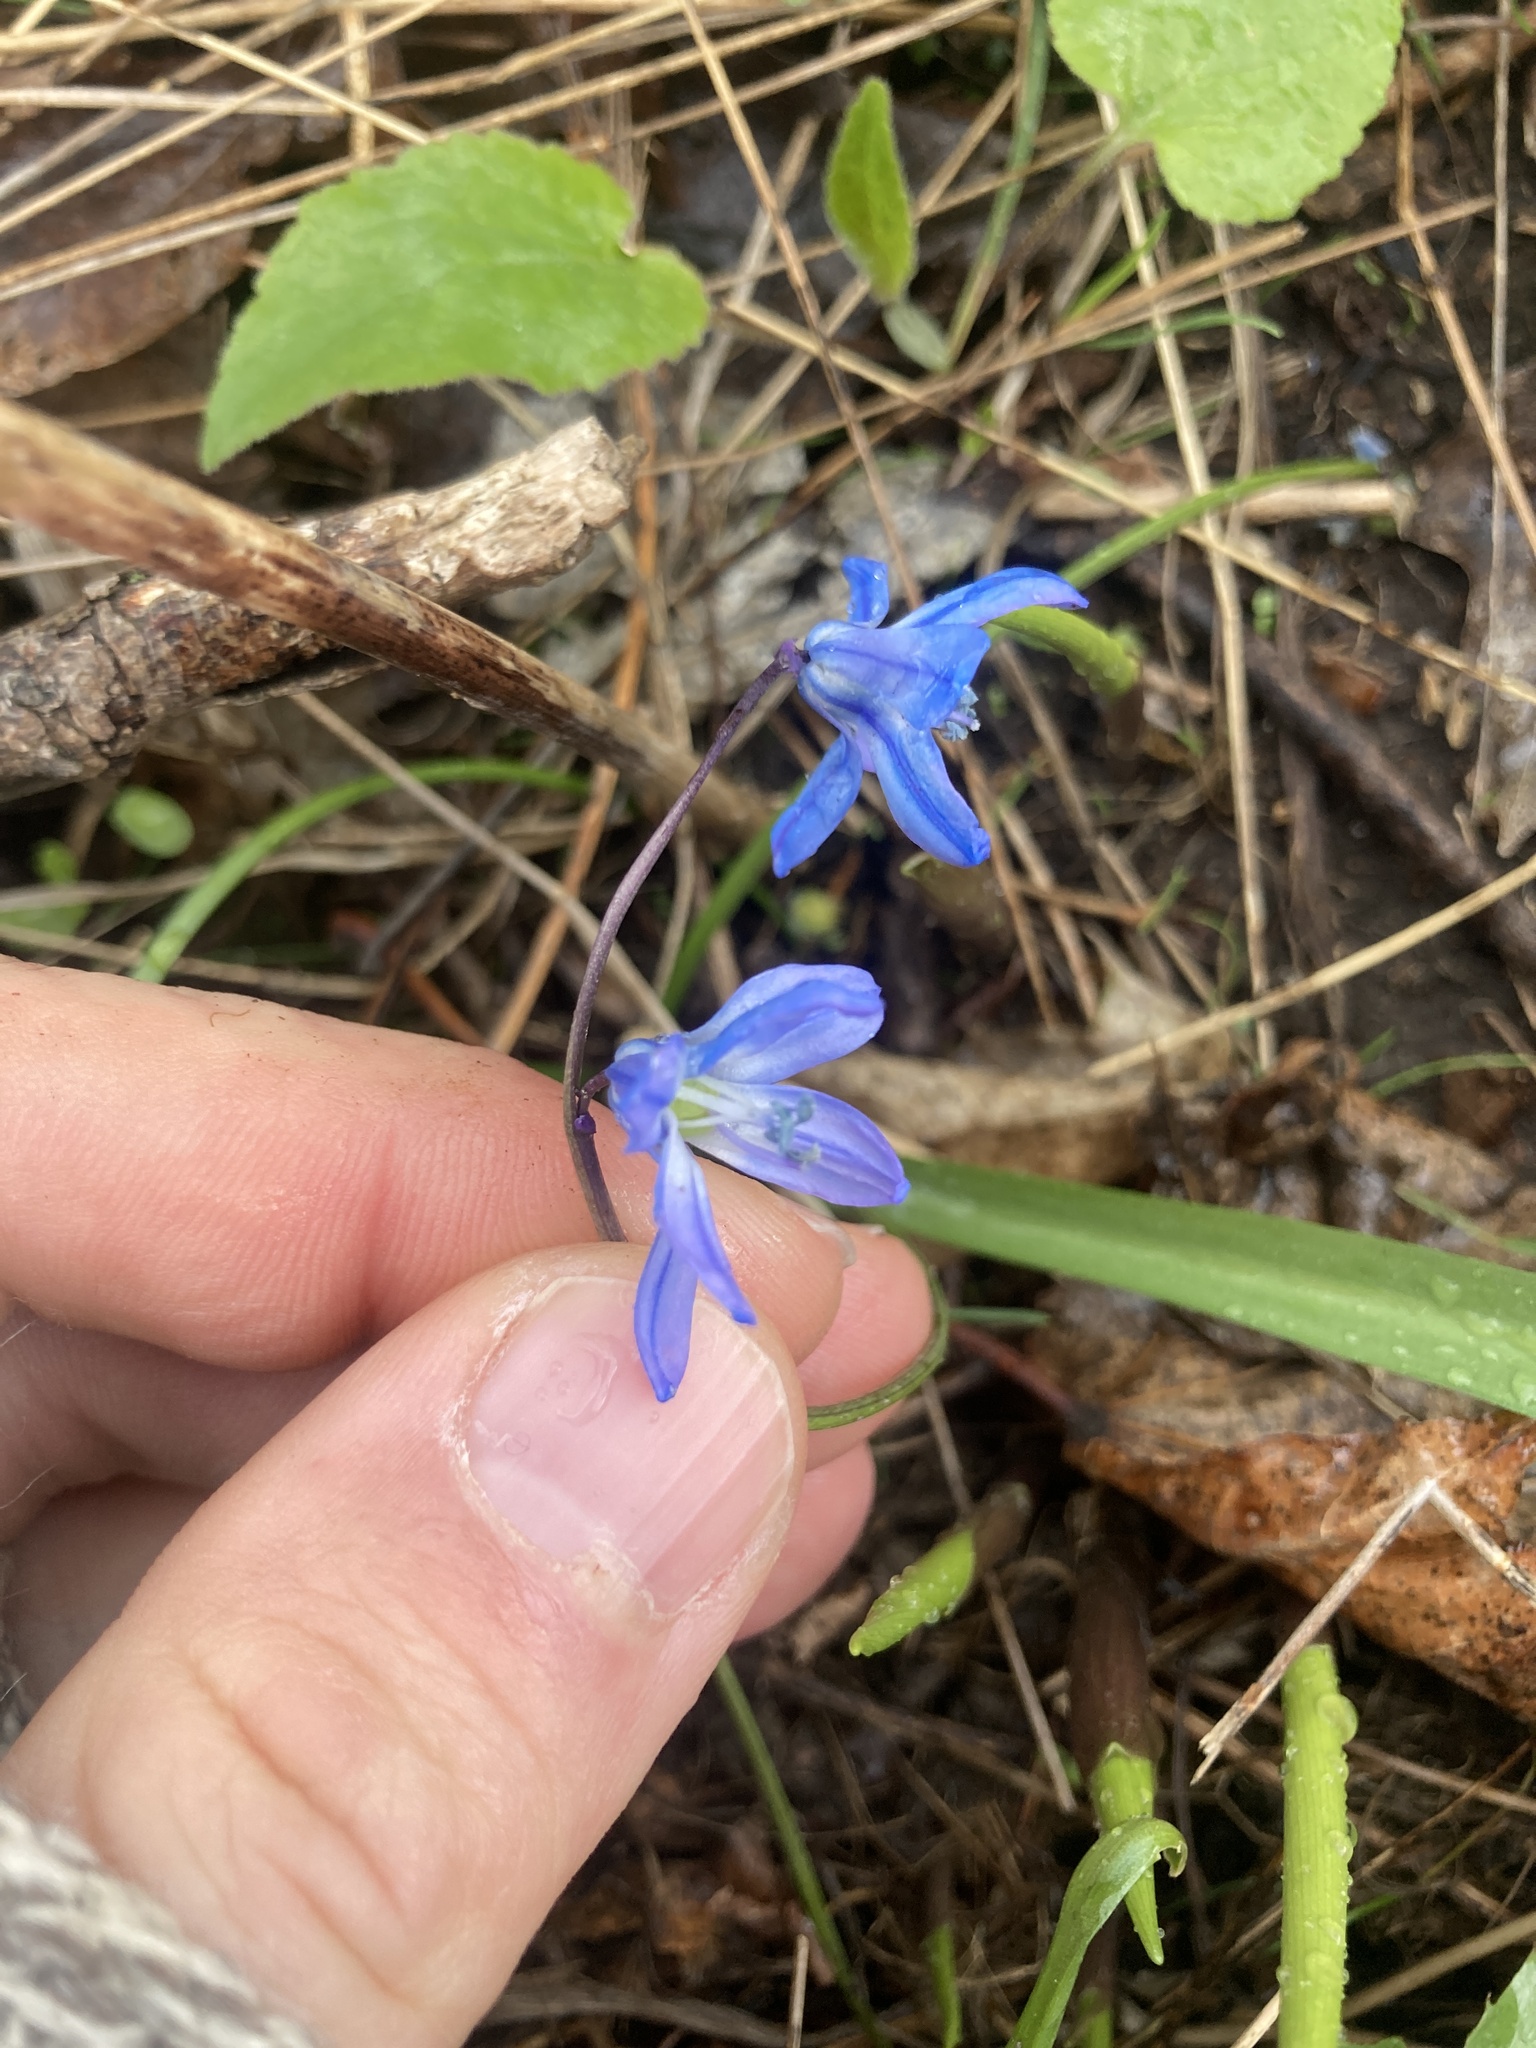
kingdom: Plantae
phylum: Tracheophyta
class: Liliopsida
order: Asparagales
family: Asparagaceae
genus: Scilla
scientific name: Scilla siberica
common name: Siberian squill
